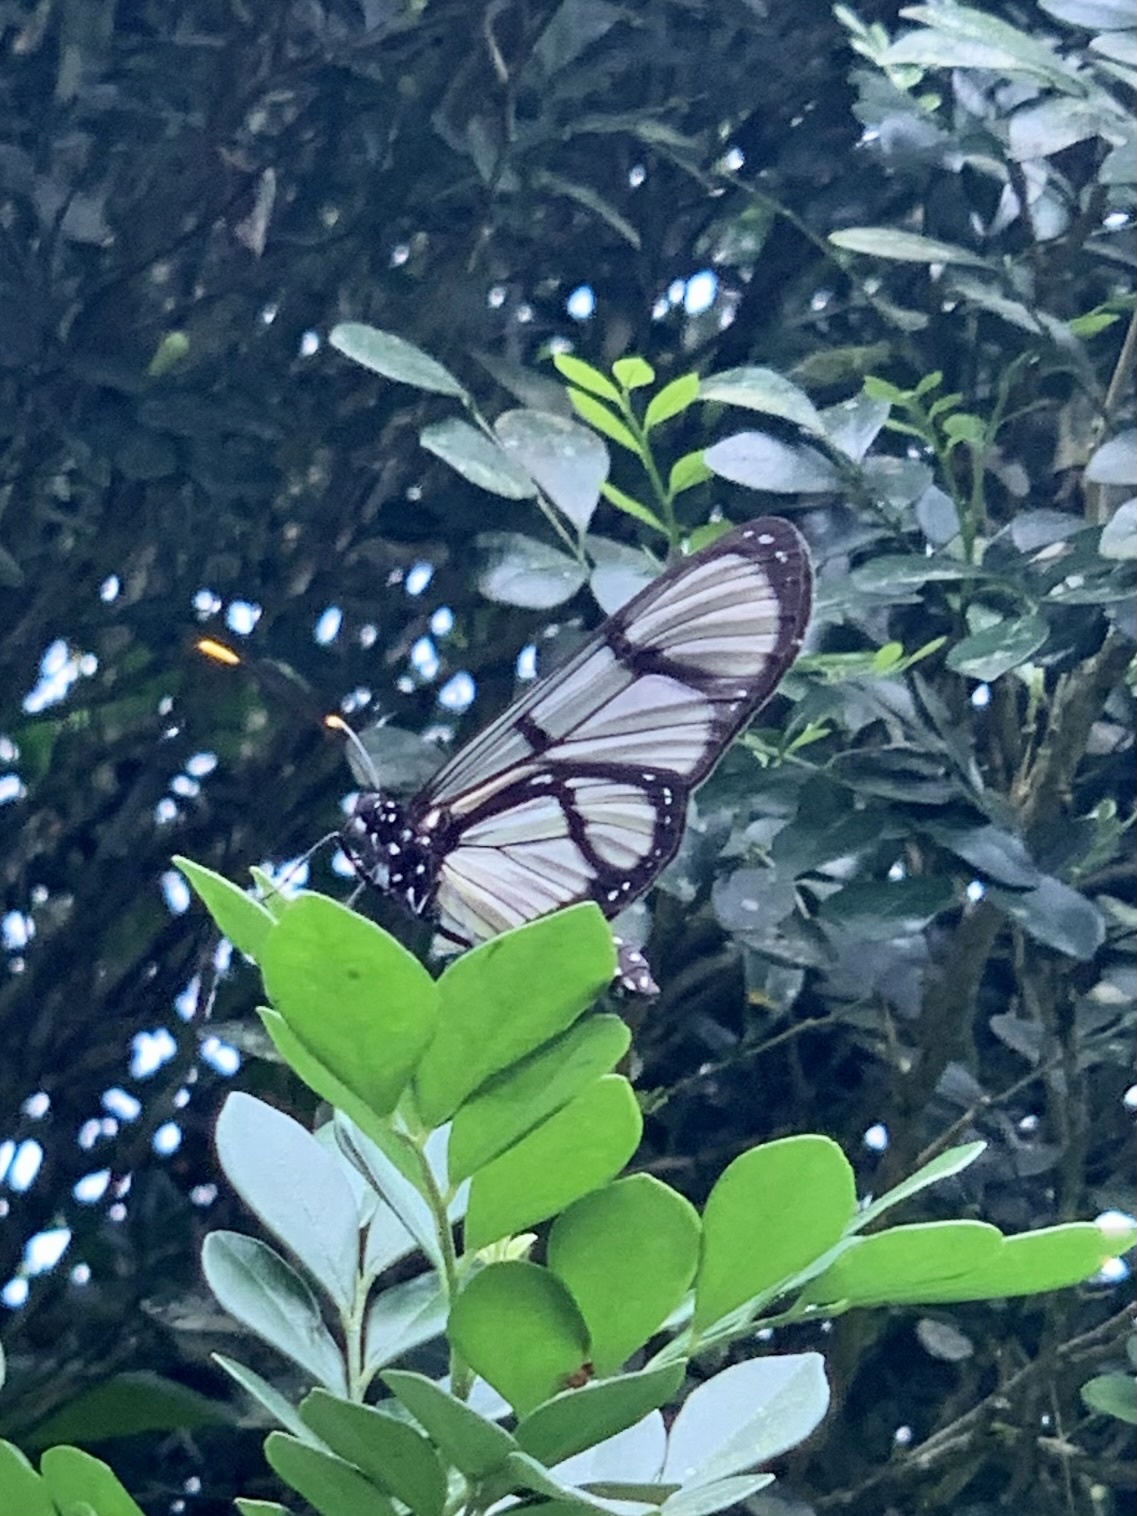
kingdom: Animalia
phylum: Arthropoda
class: Insecta
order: Lepidoptera
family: Nymphalidae
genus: Methona
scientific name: Methona confusa
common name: Confusa tigerwing
